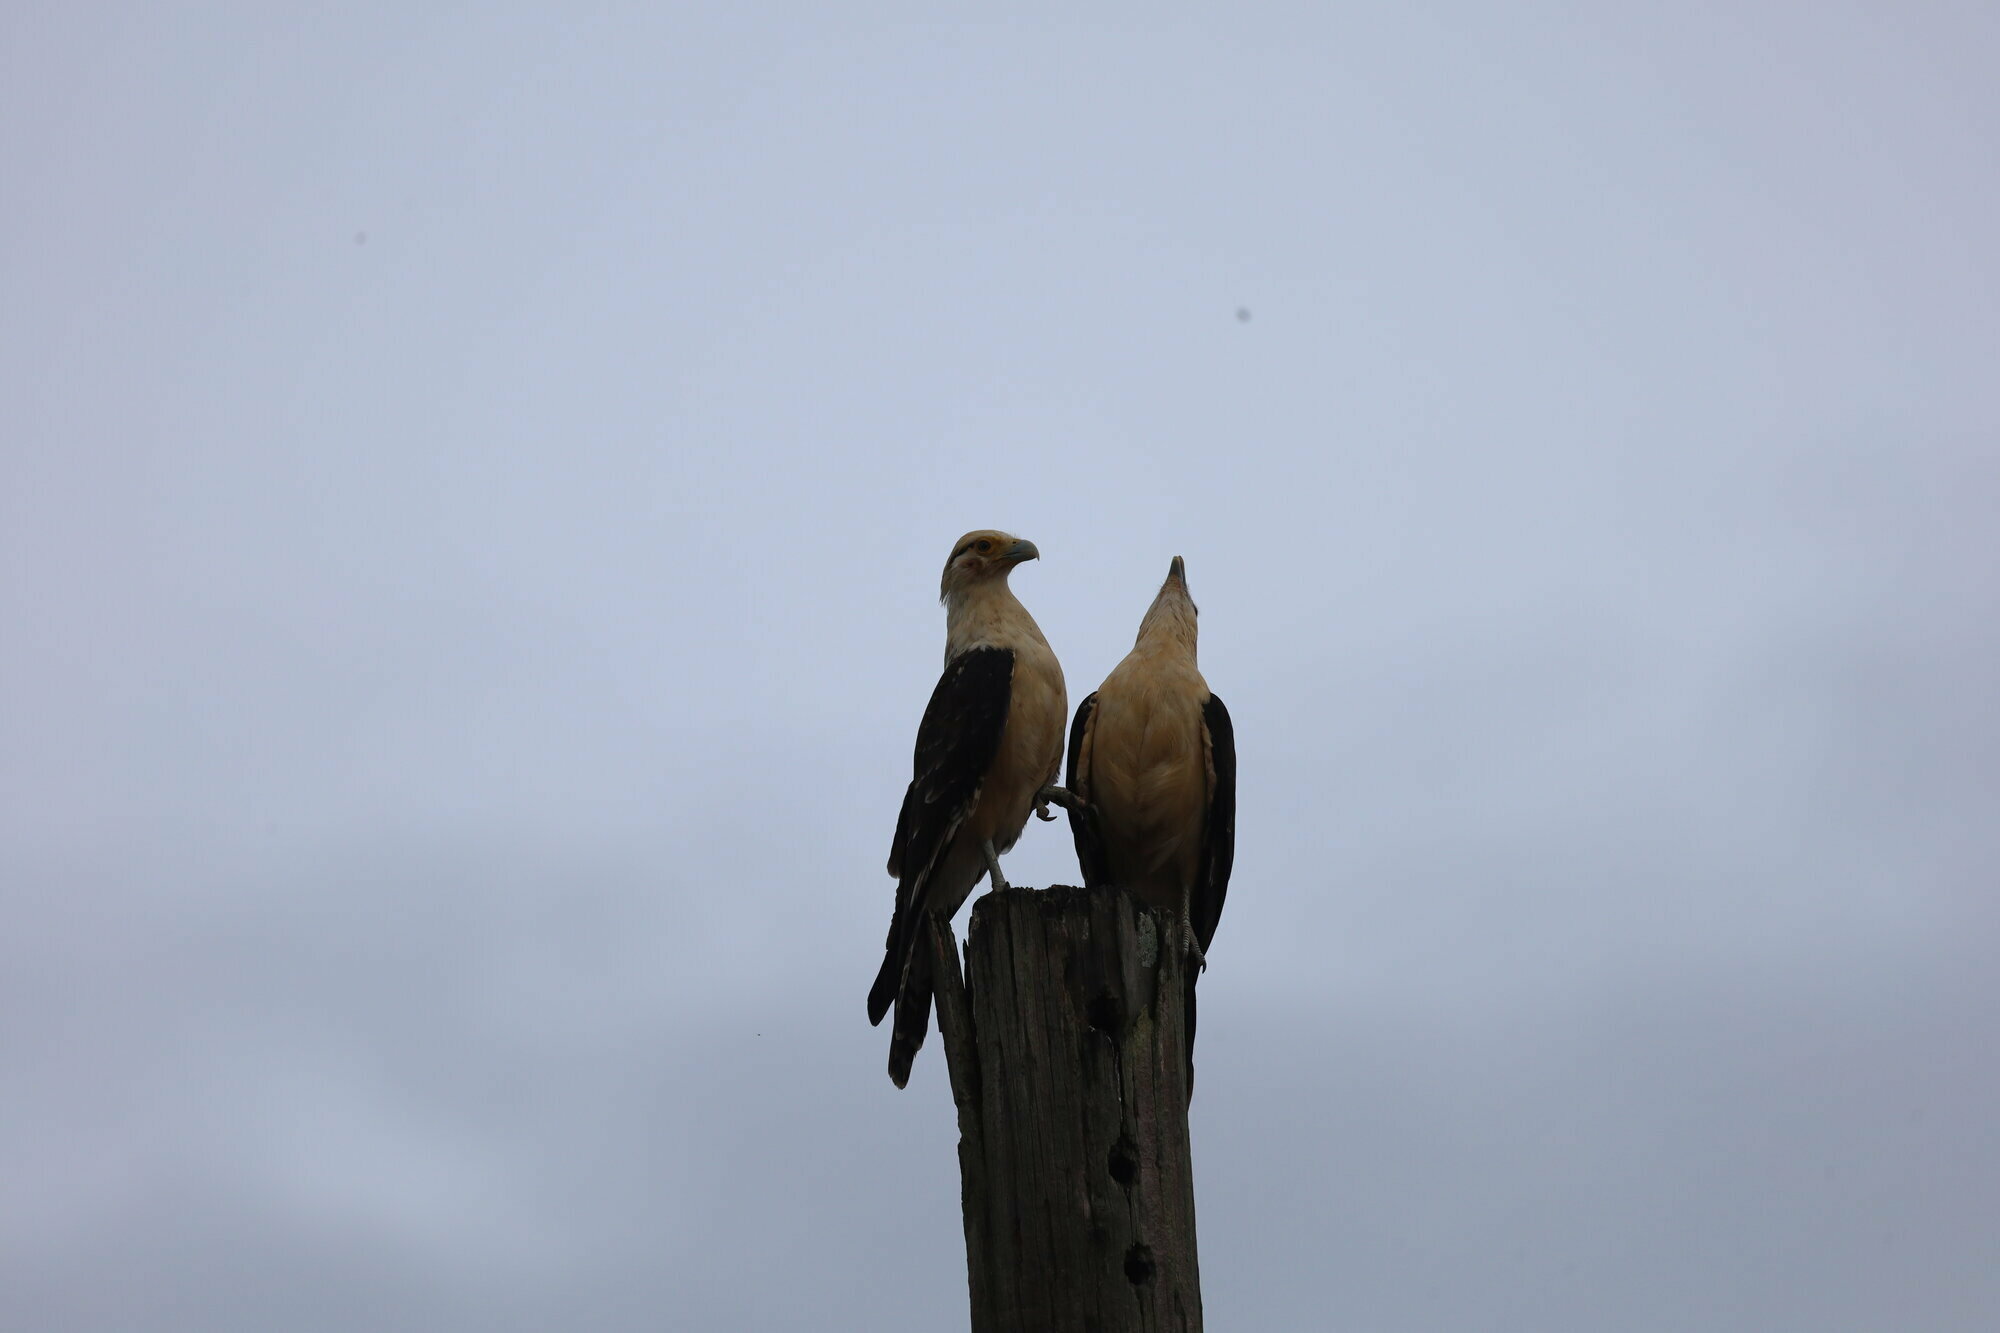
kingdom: Animalia
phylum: Chordata
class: Aves
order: Falconiformes
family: Falconidae
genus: Daptrius
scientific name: Daptrius
